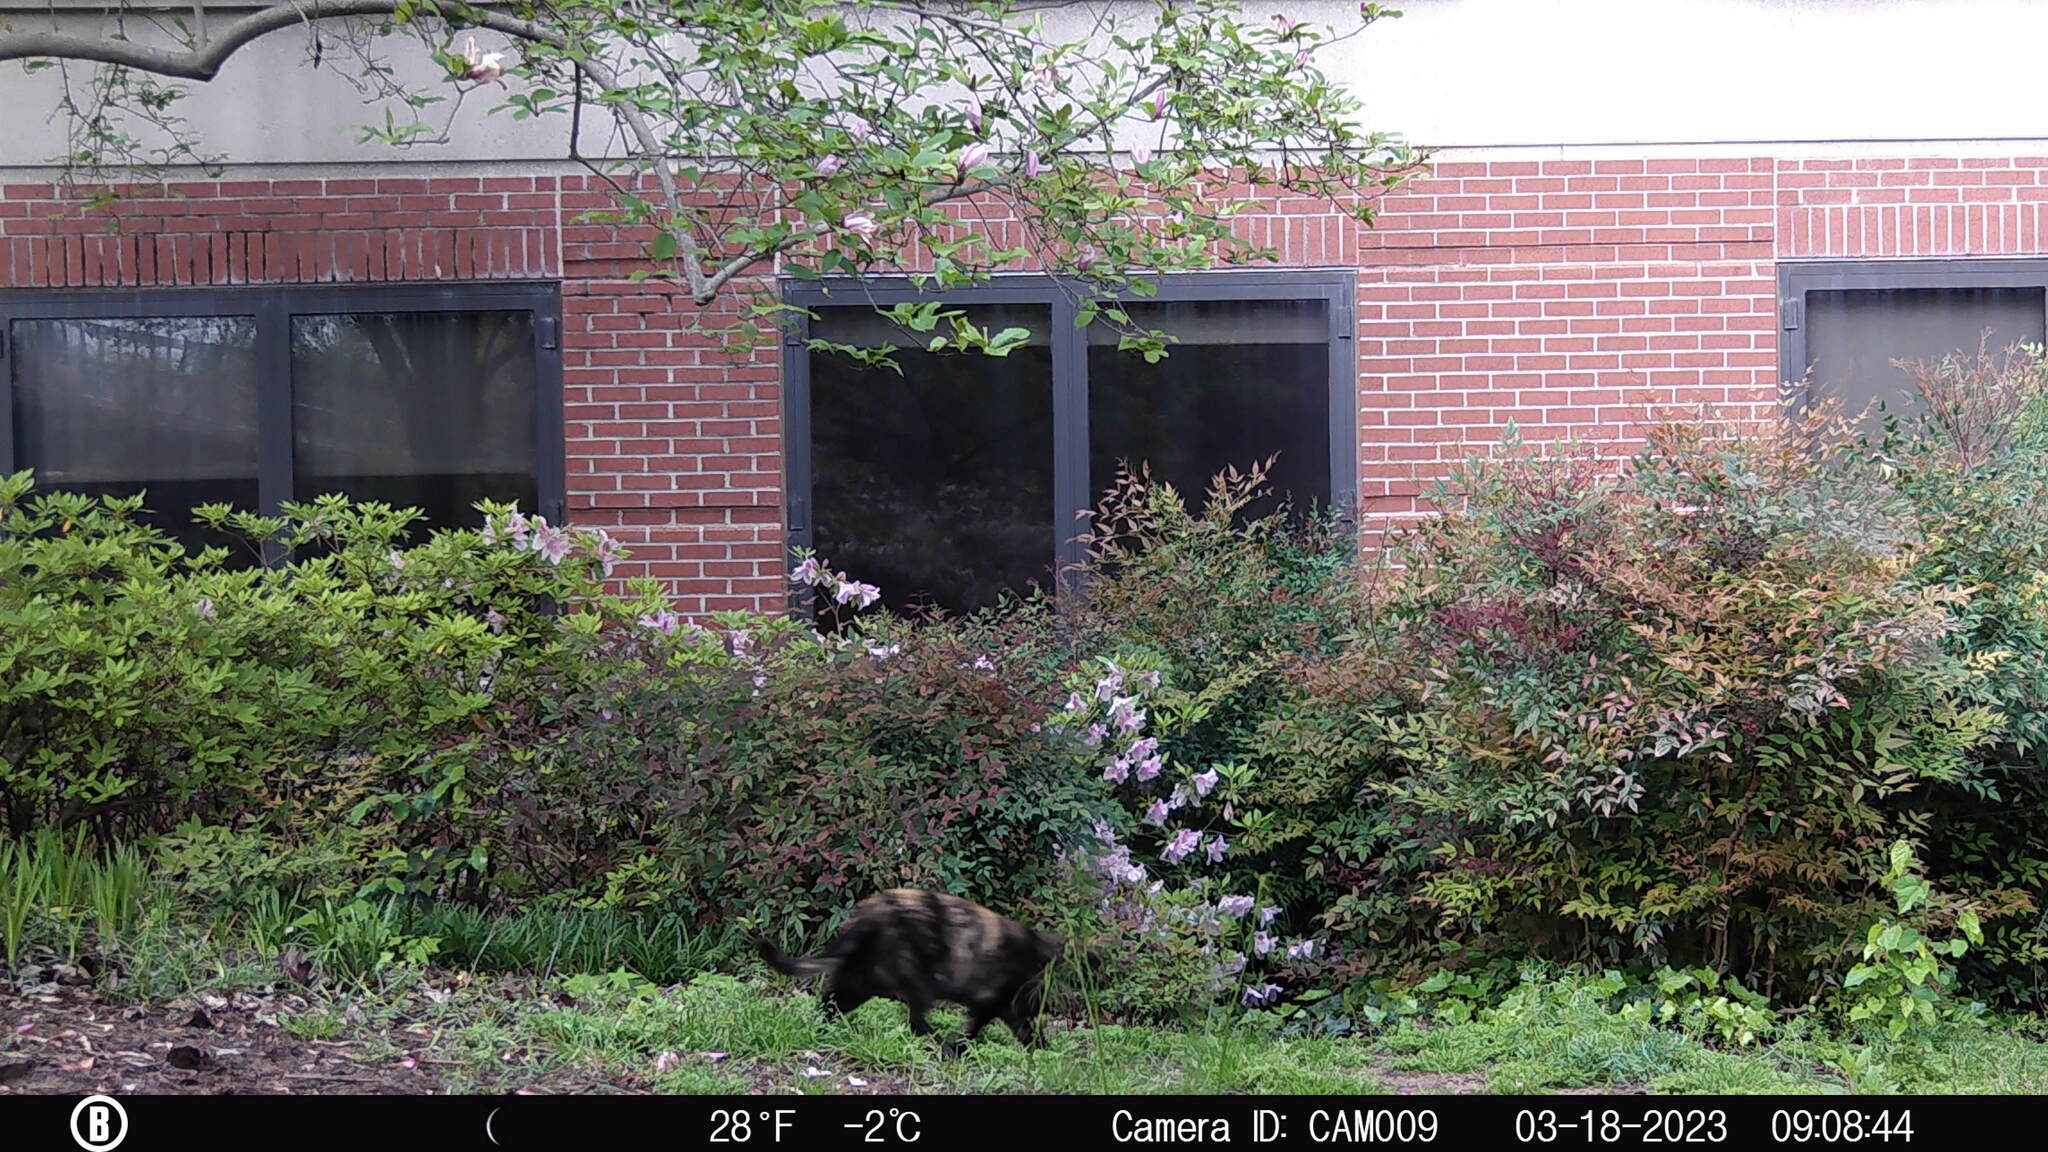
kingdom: Animalia
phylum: Chordata
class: Mammalia
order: Carnivora
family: Felidae
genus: Felis
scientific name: Felis catus
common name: Domestic cat
